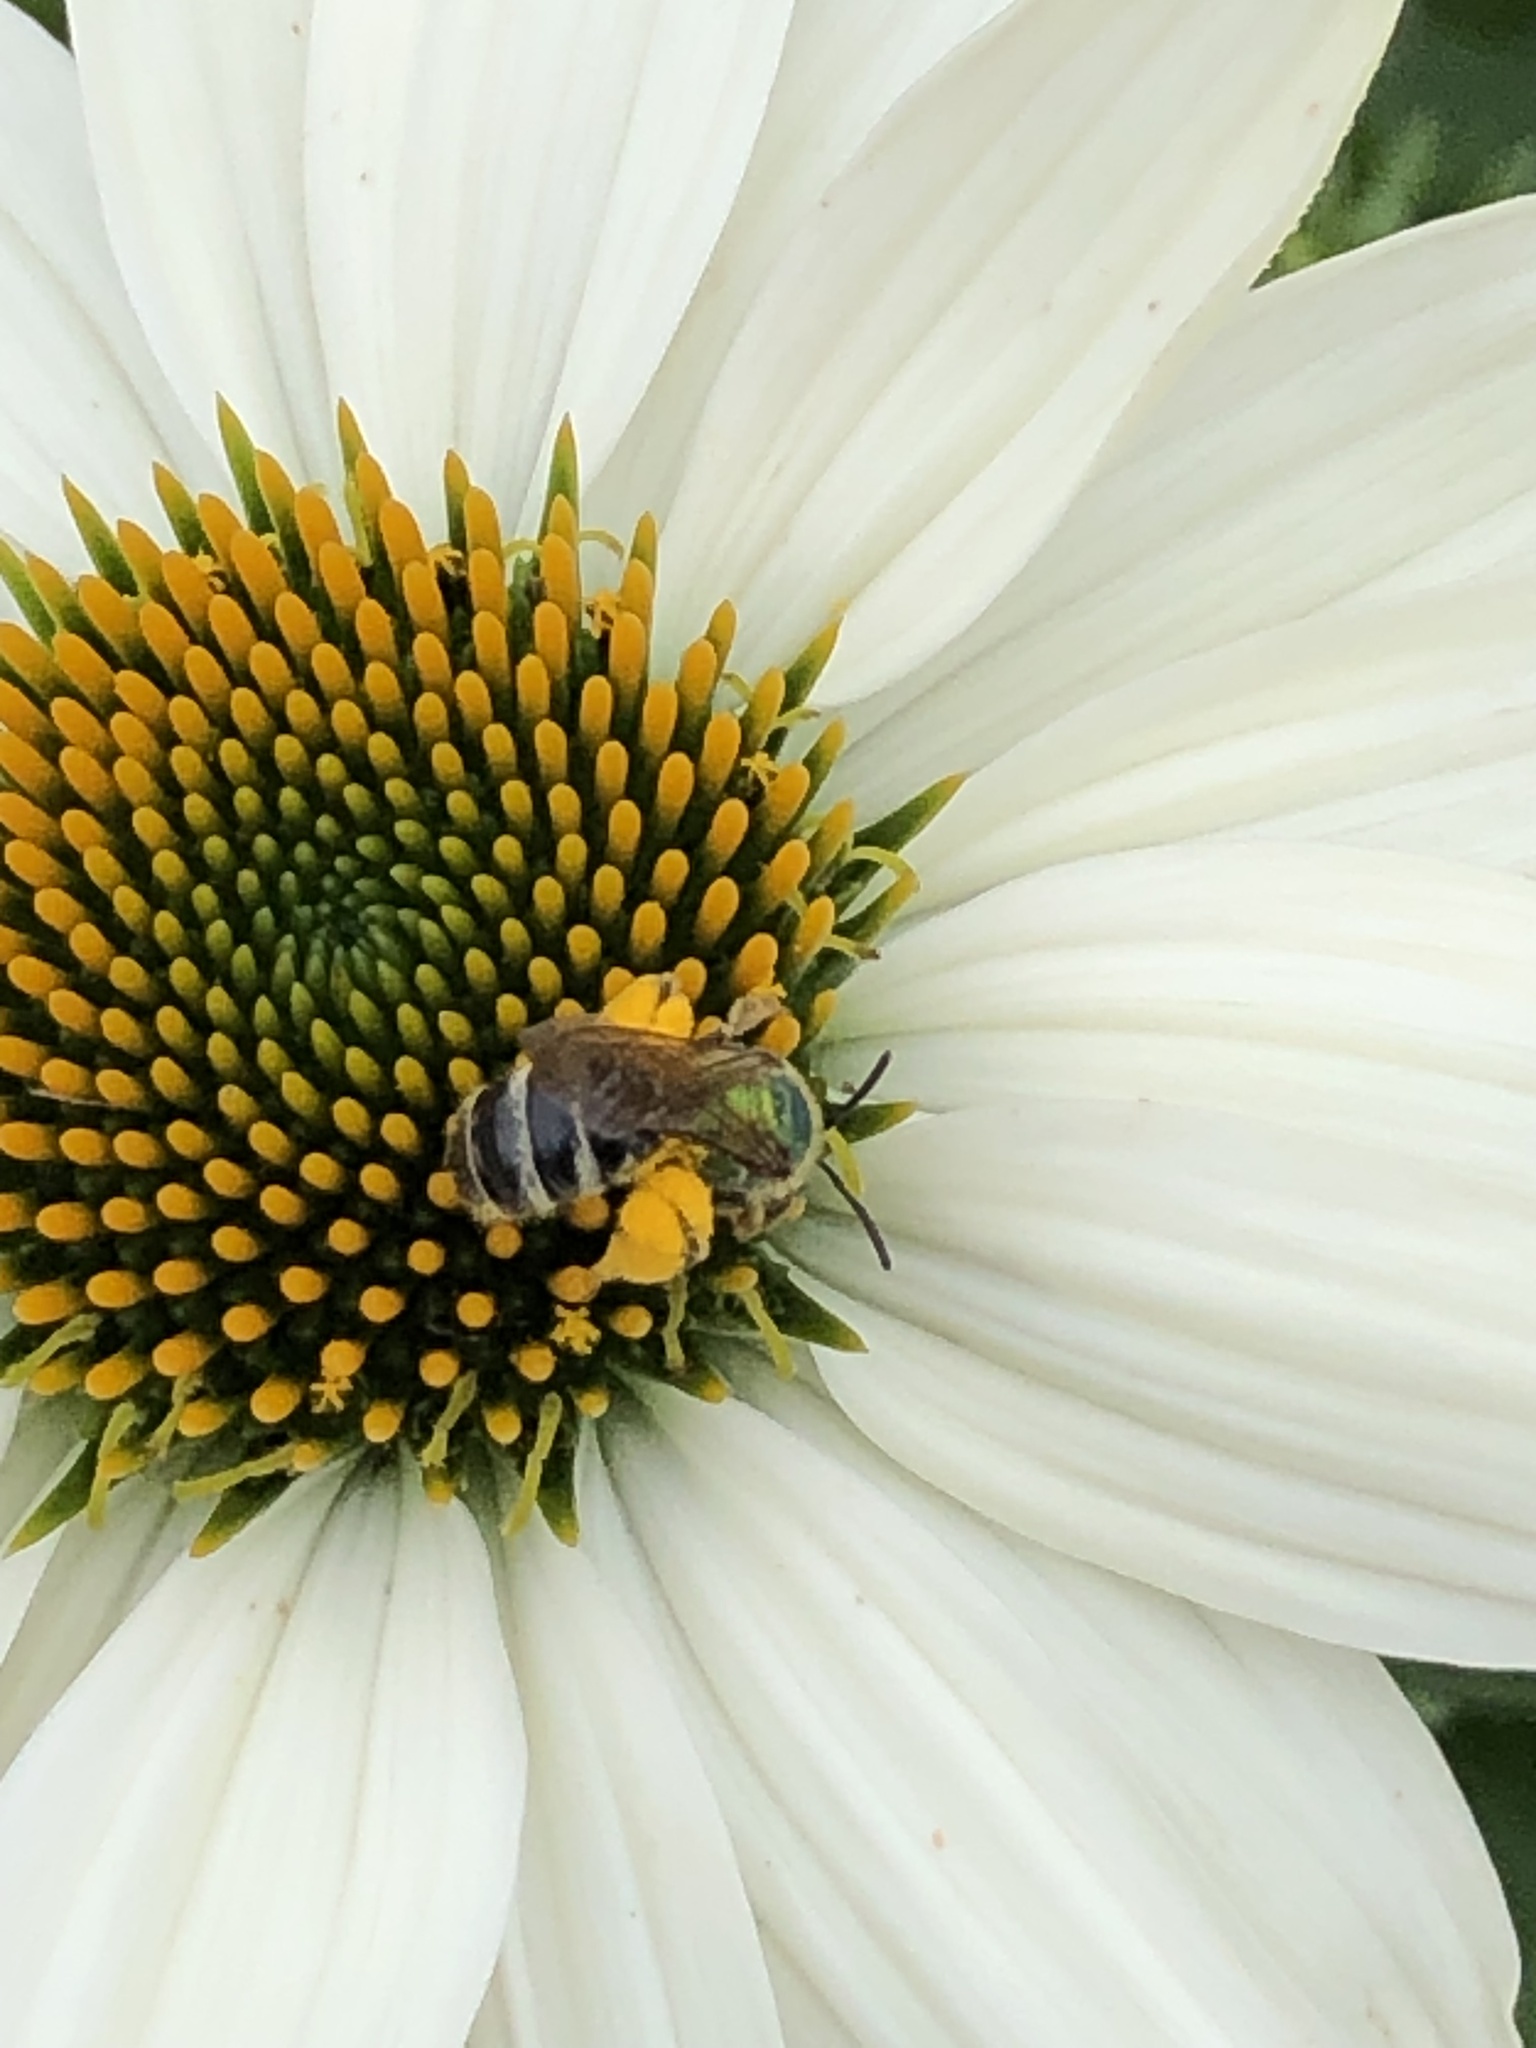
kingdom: Animalia
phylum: Arthropoda
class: Insecta
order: Hymenoptera
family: Halictidae
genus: Agapostemon
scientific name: Agapostemon virescens
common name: Bicolored striped sweat bee
